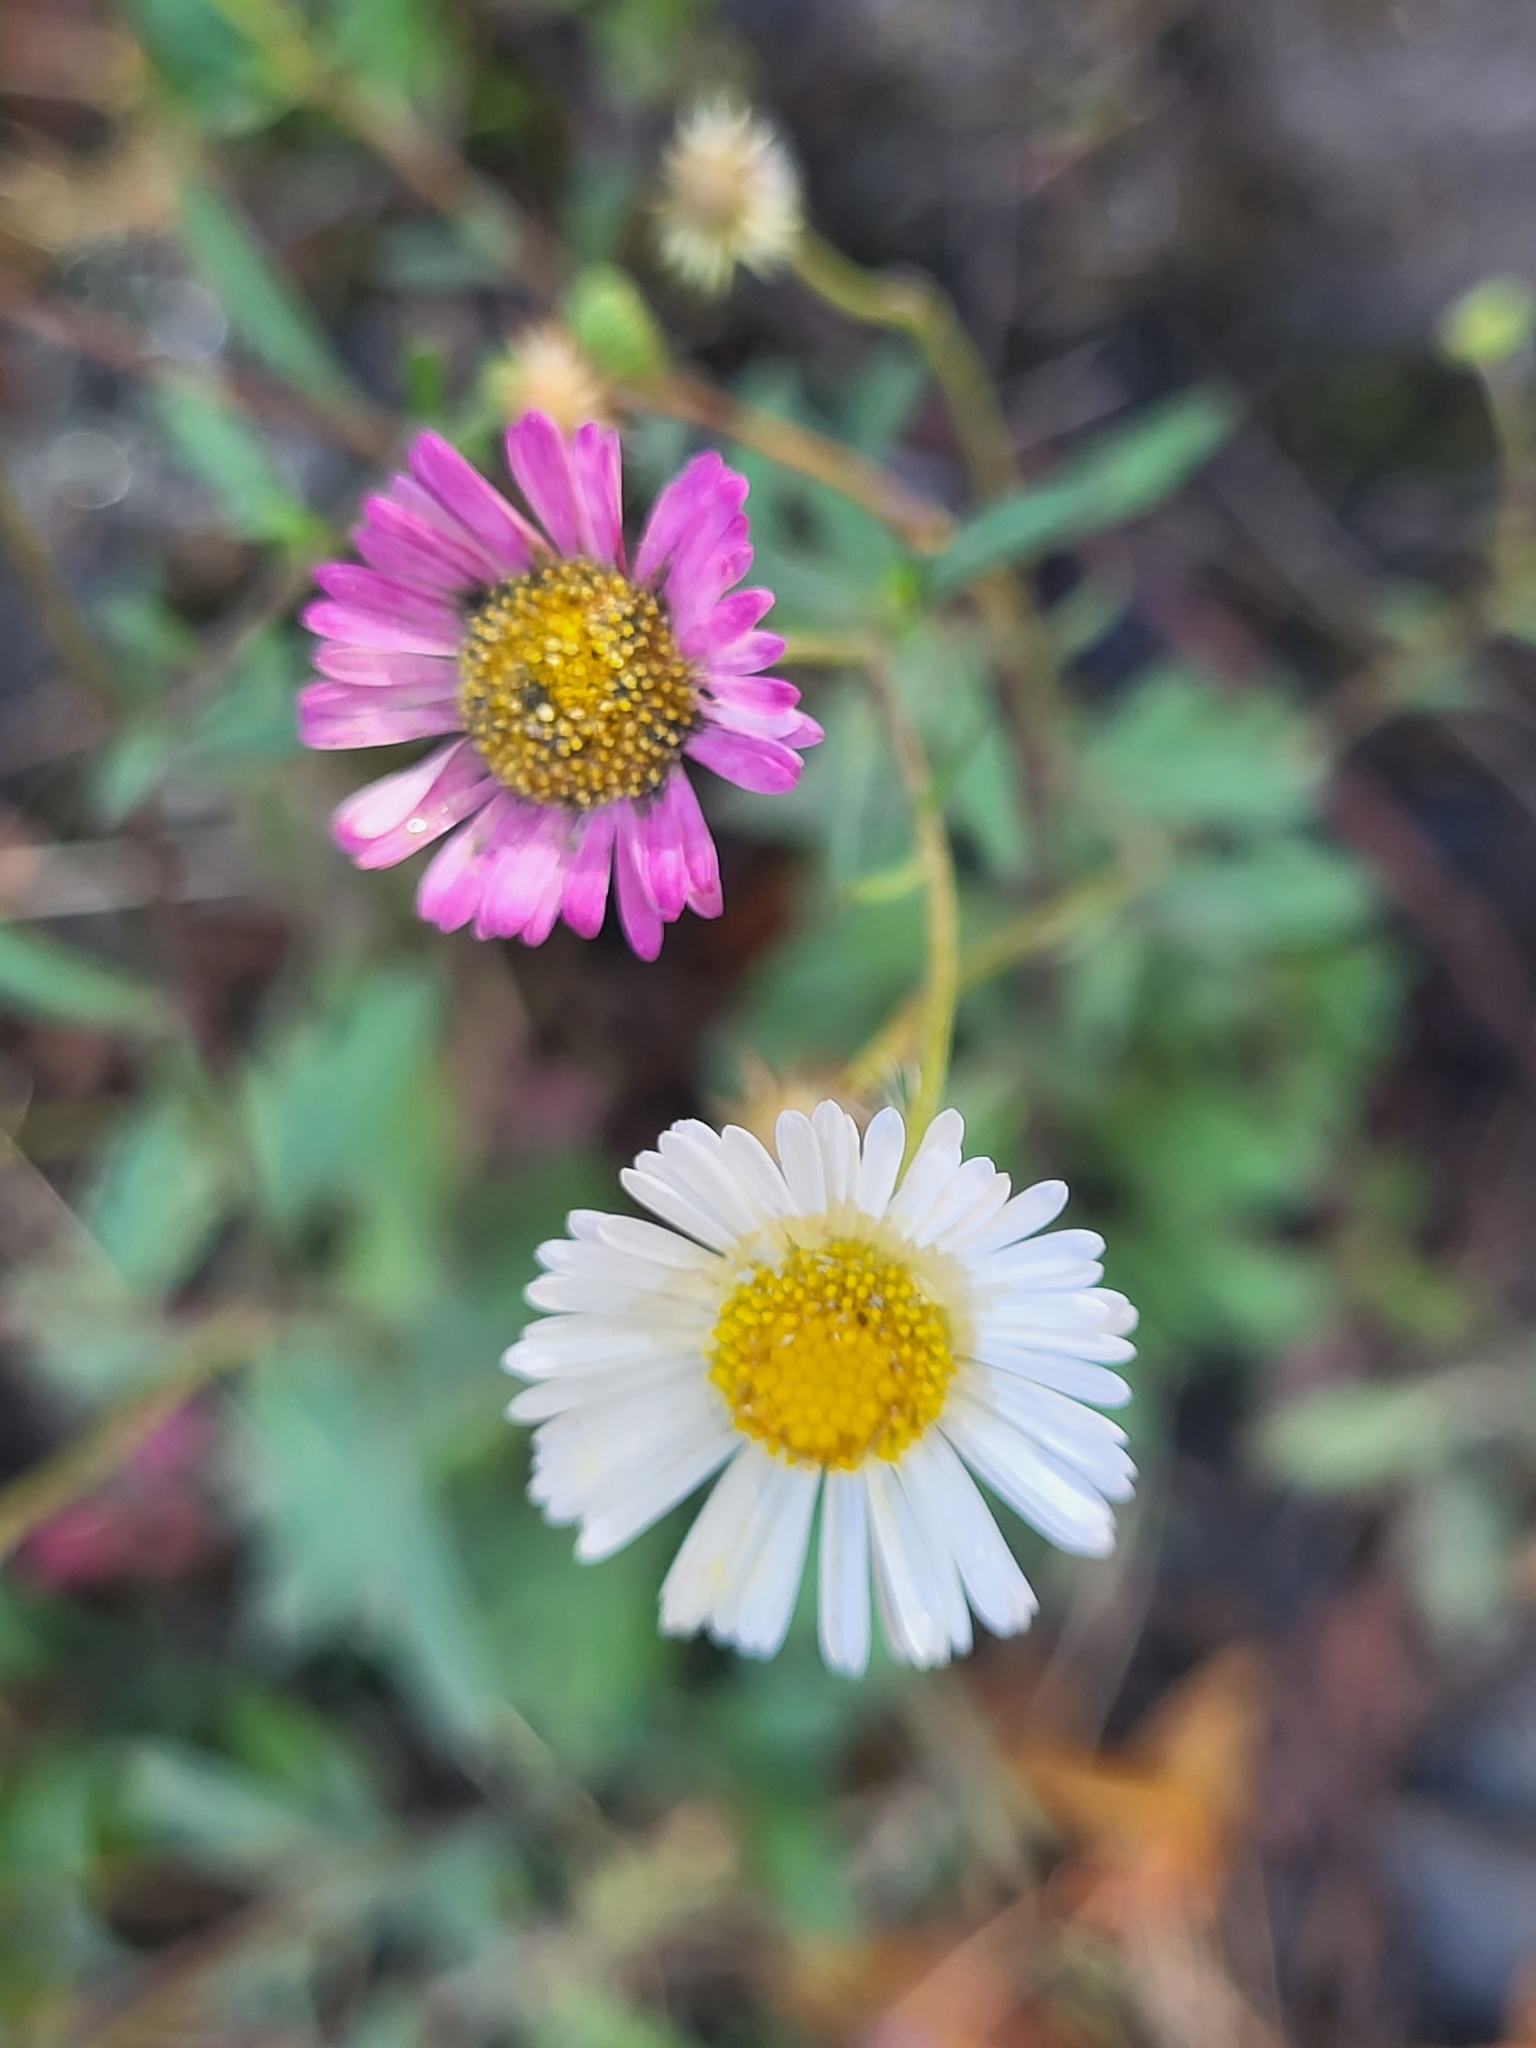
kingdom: Plantae
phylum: Tracheophyta
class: Magnoliopsida
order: Asterales
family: Asteraceae
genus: Erigeron
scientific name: Erigeron karvinskianus
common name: Mexican fleabane
